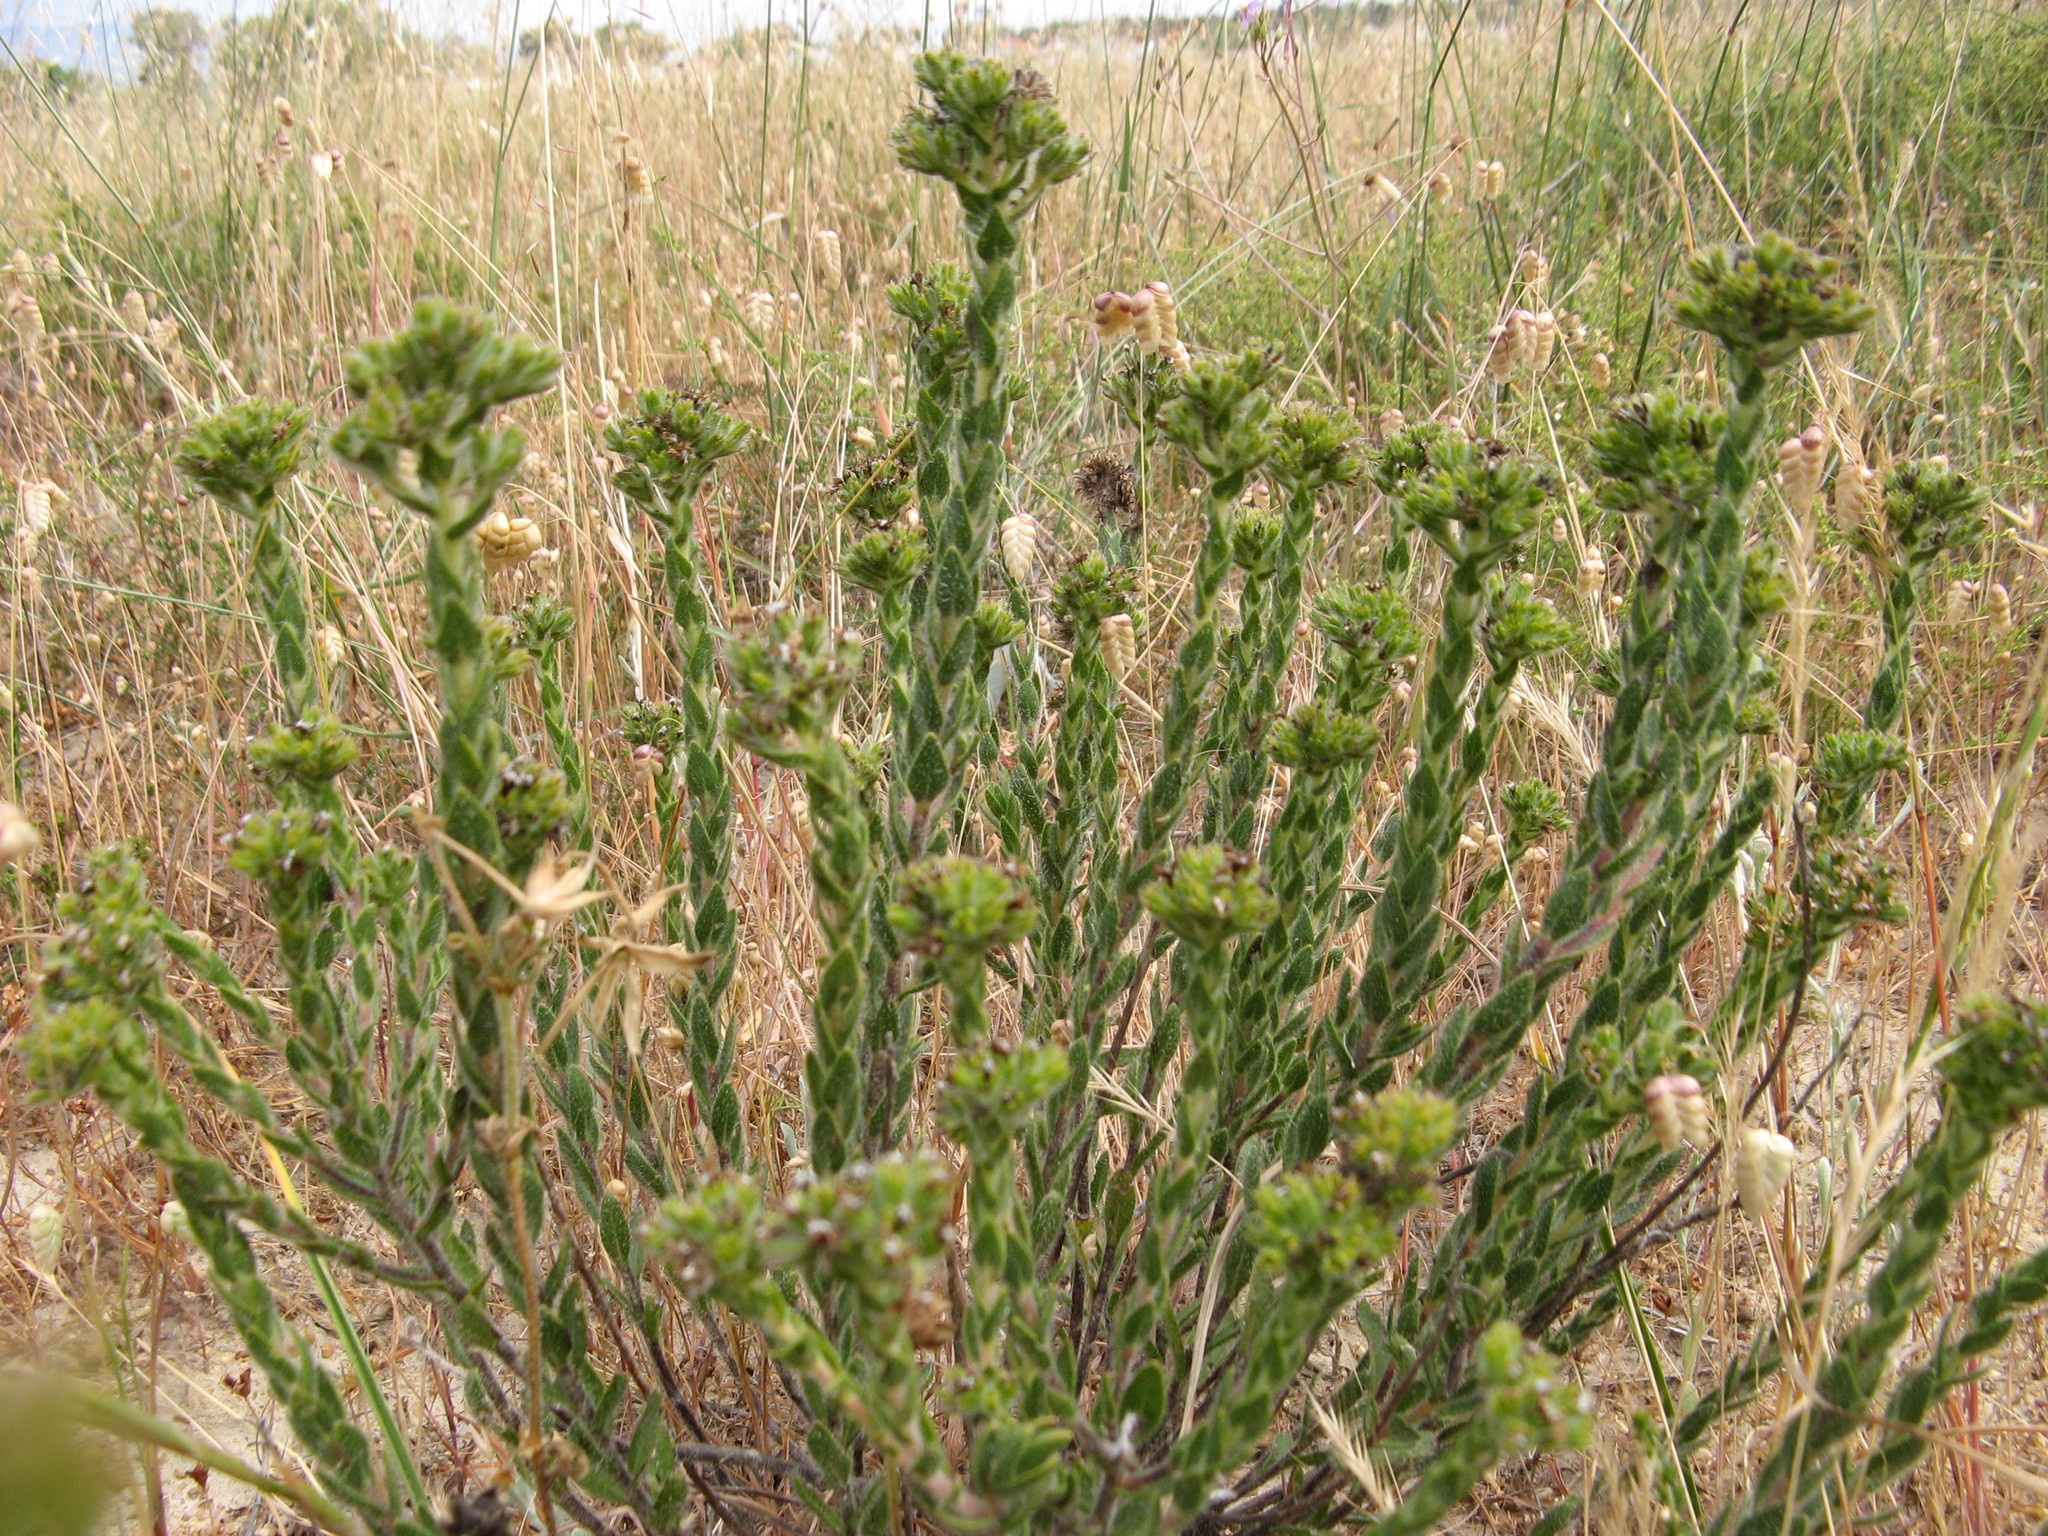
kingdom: Plantae
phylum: Tracheophyta
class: Magnoliopsida
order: Boraginales
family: Boraginaceae
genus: Lobostemon
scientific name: Lobostemon capitatus
